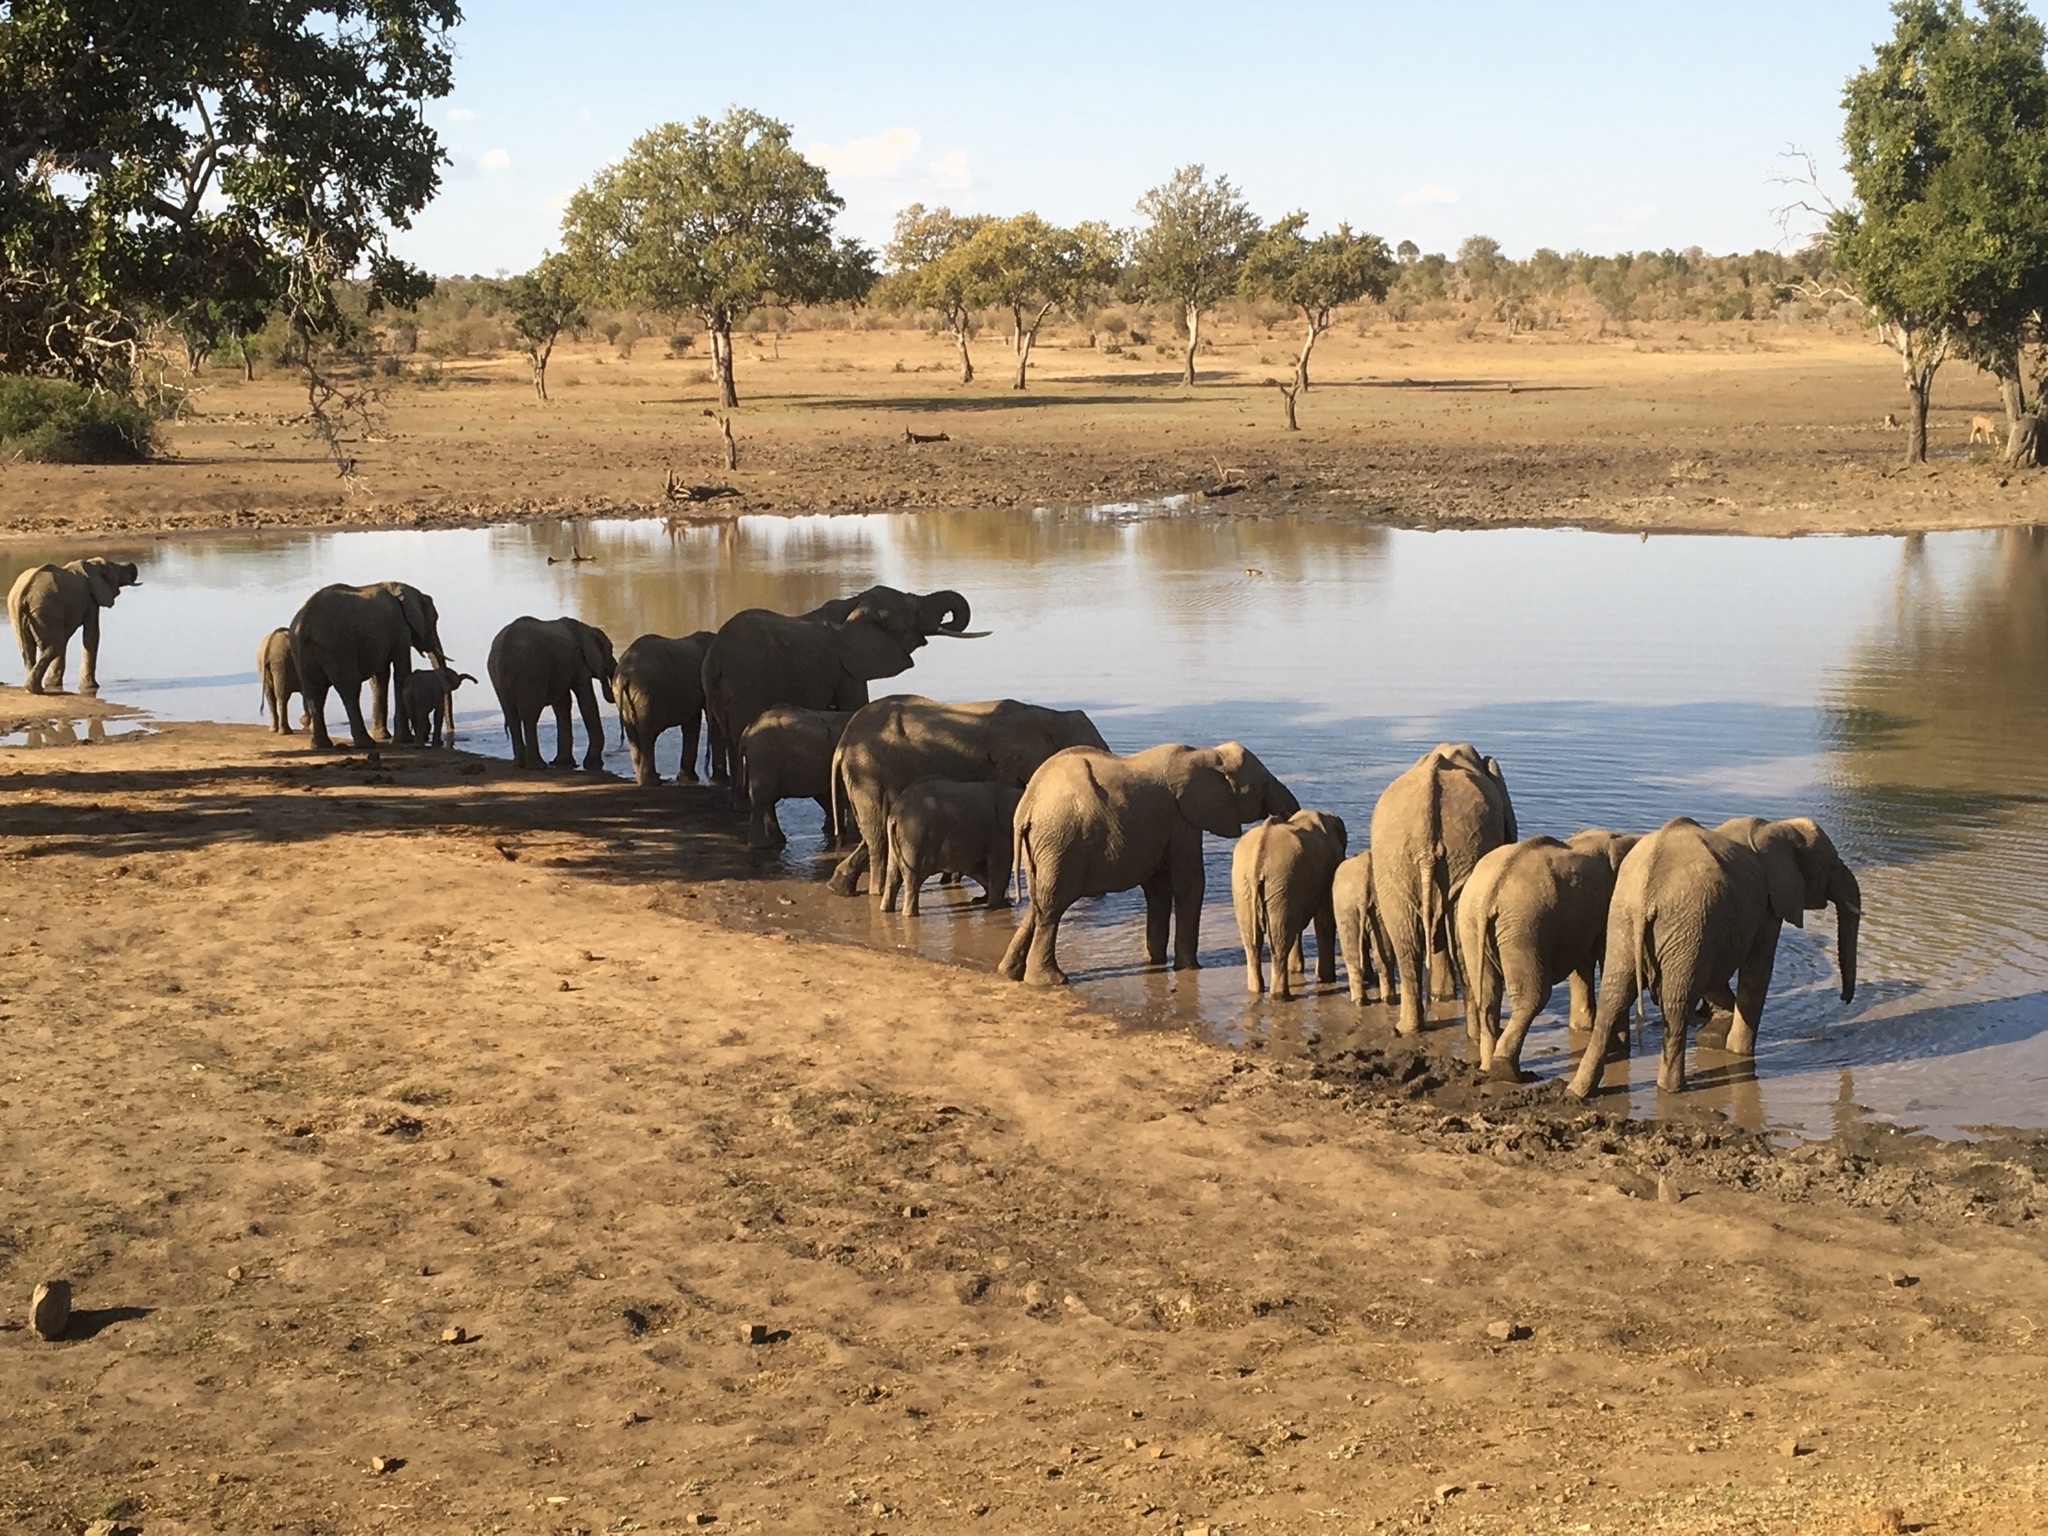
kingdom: Animalia
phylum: Chordata
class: Mammalia
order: Proboscidea
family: Elephantidae
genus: Loxodonta
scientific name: Loxodonta africana
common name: African elephant
